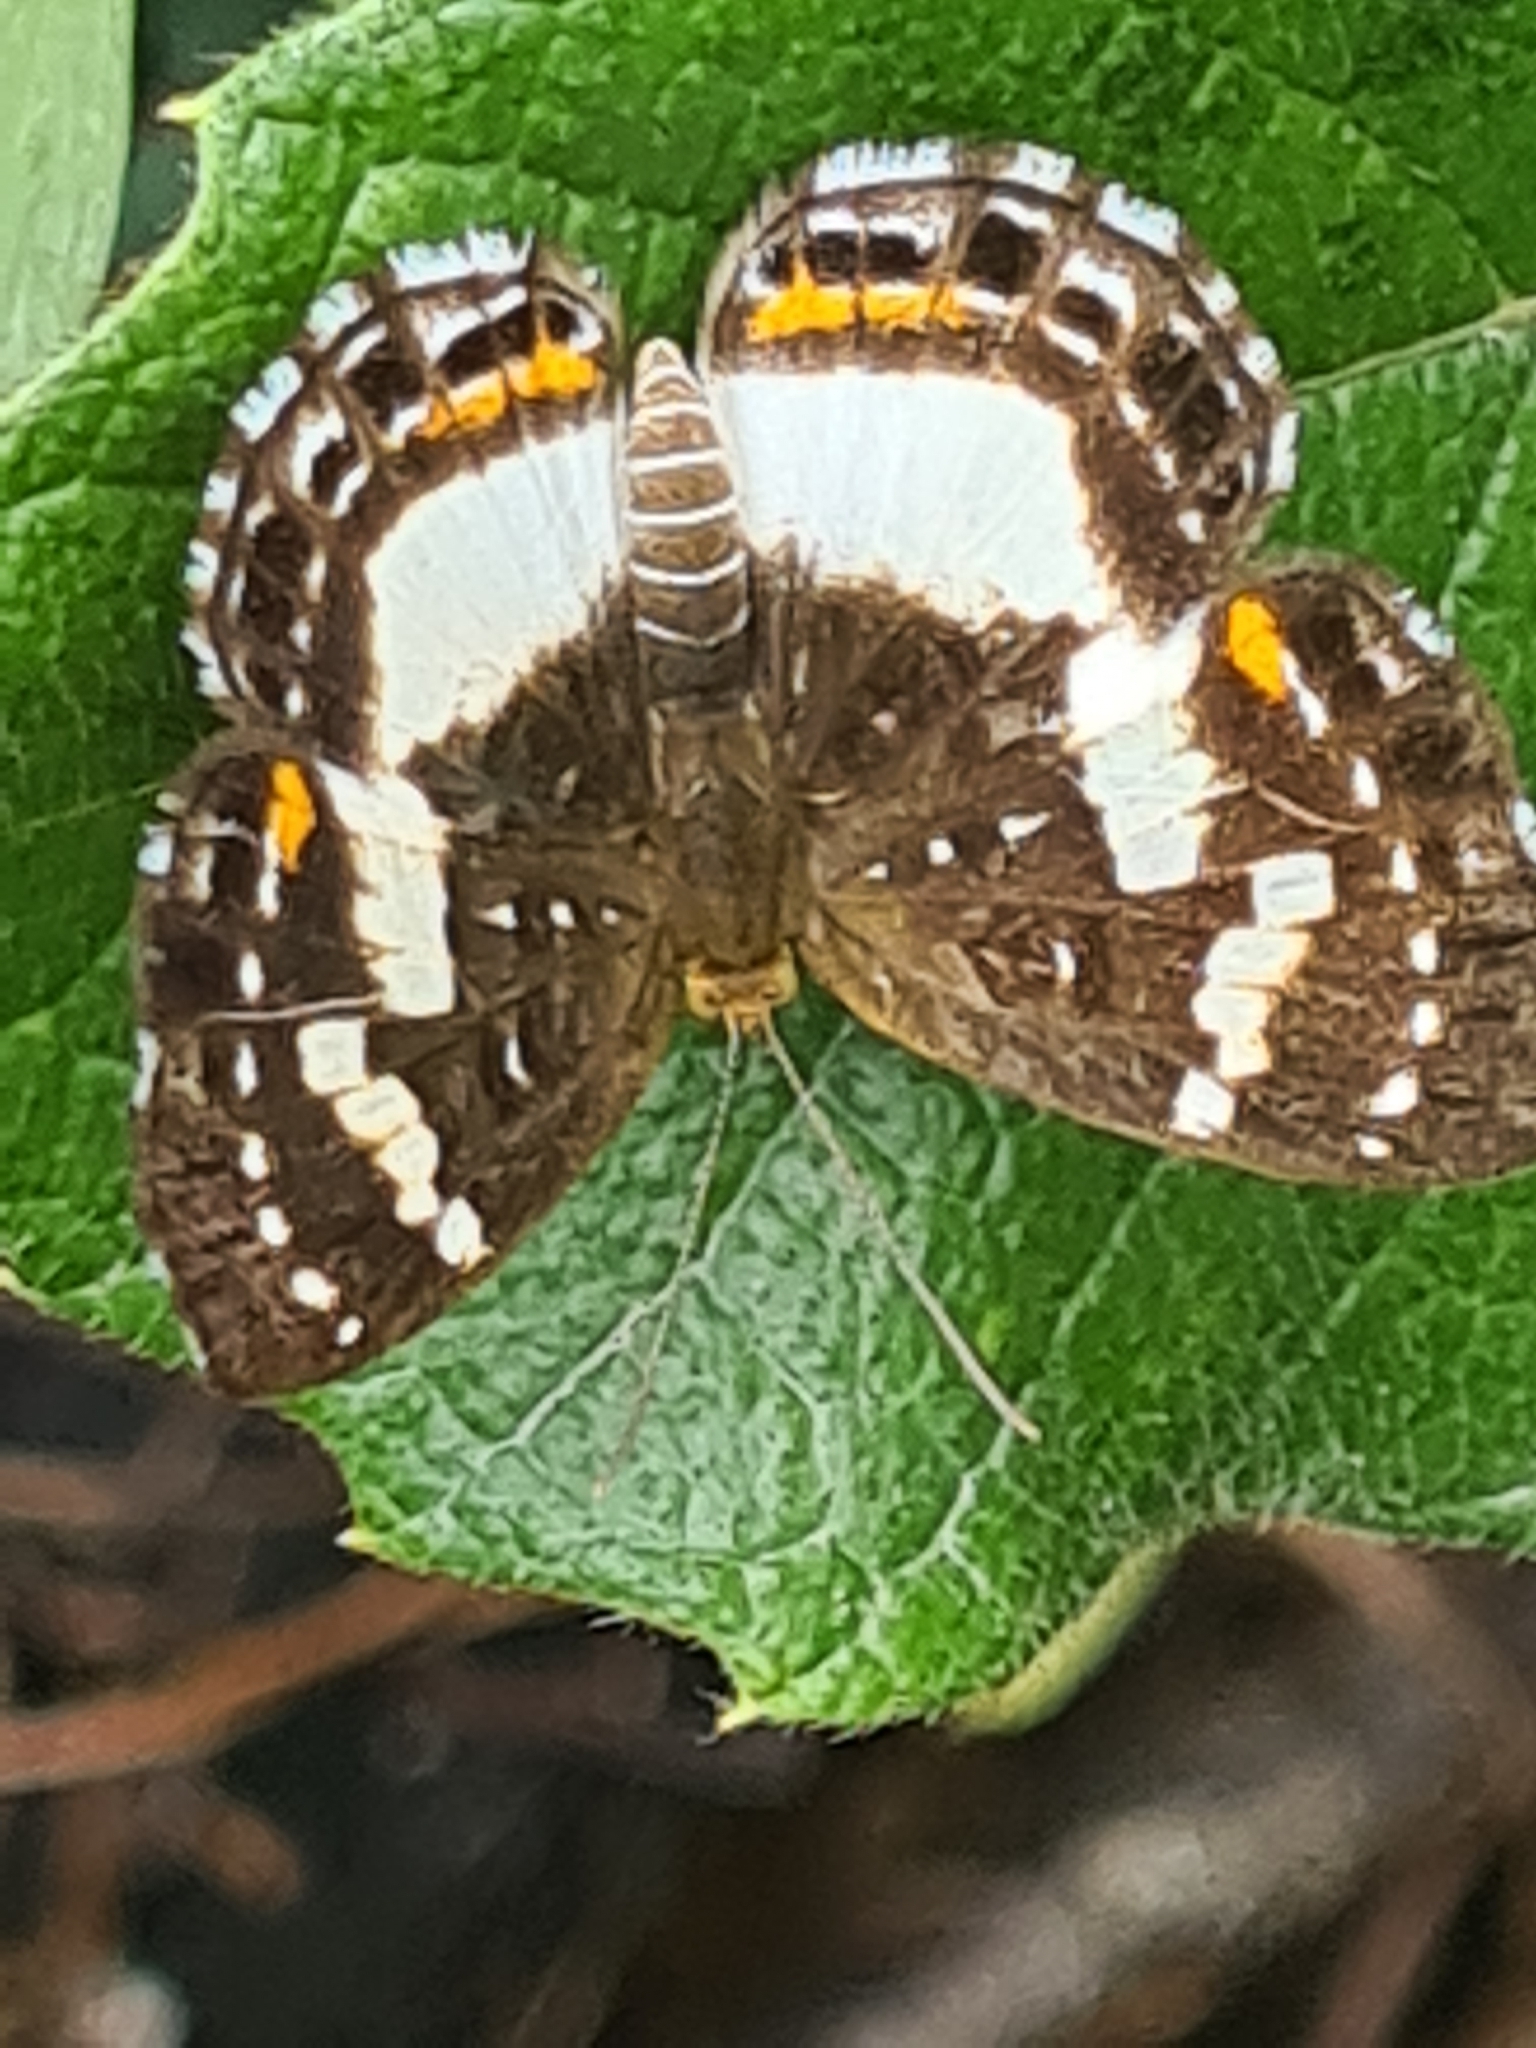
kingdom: Animalia
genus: Lemonias
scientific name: Lemonias zygia
